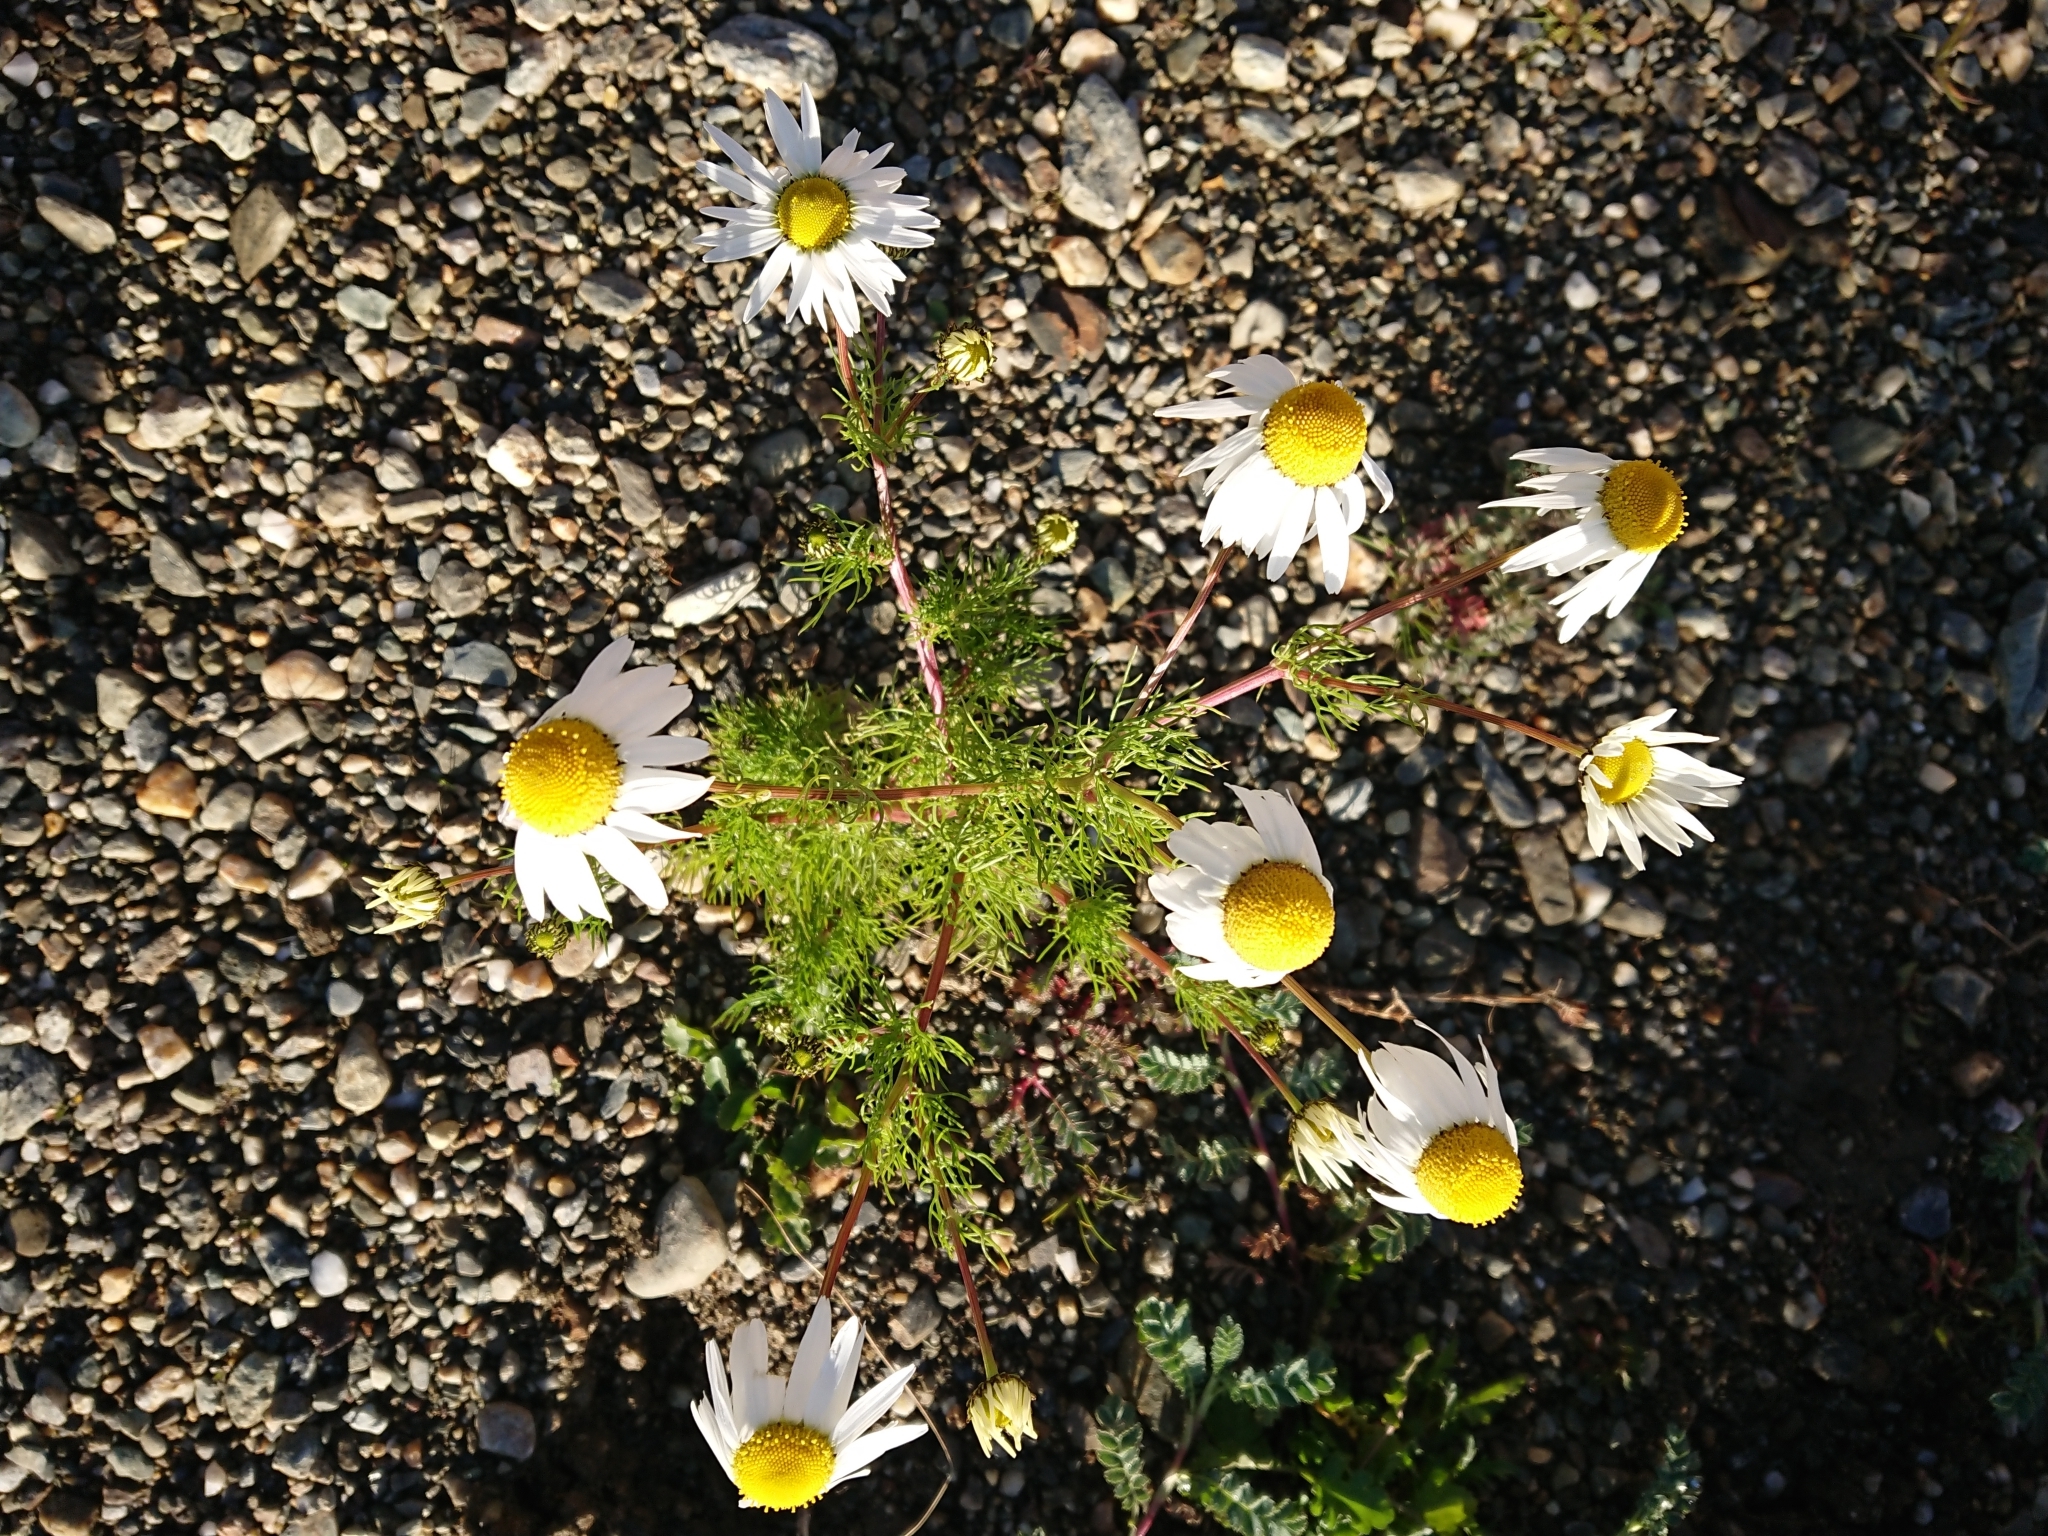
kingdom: Plantae
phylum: Tracheophyta
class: Magnoliopsida
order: Asterales
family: Asteraceae
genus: Tripleurospermum
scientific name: Tripleurospermum maritimum
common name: Sea mayweed
